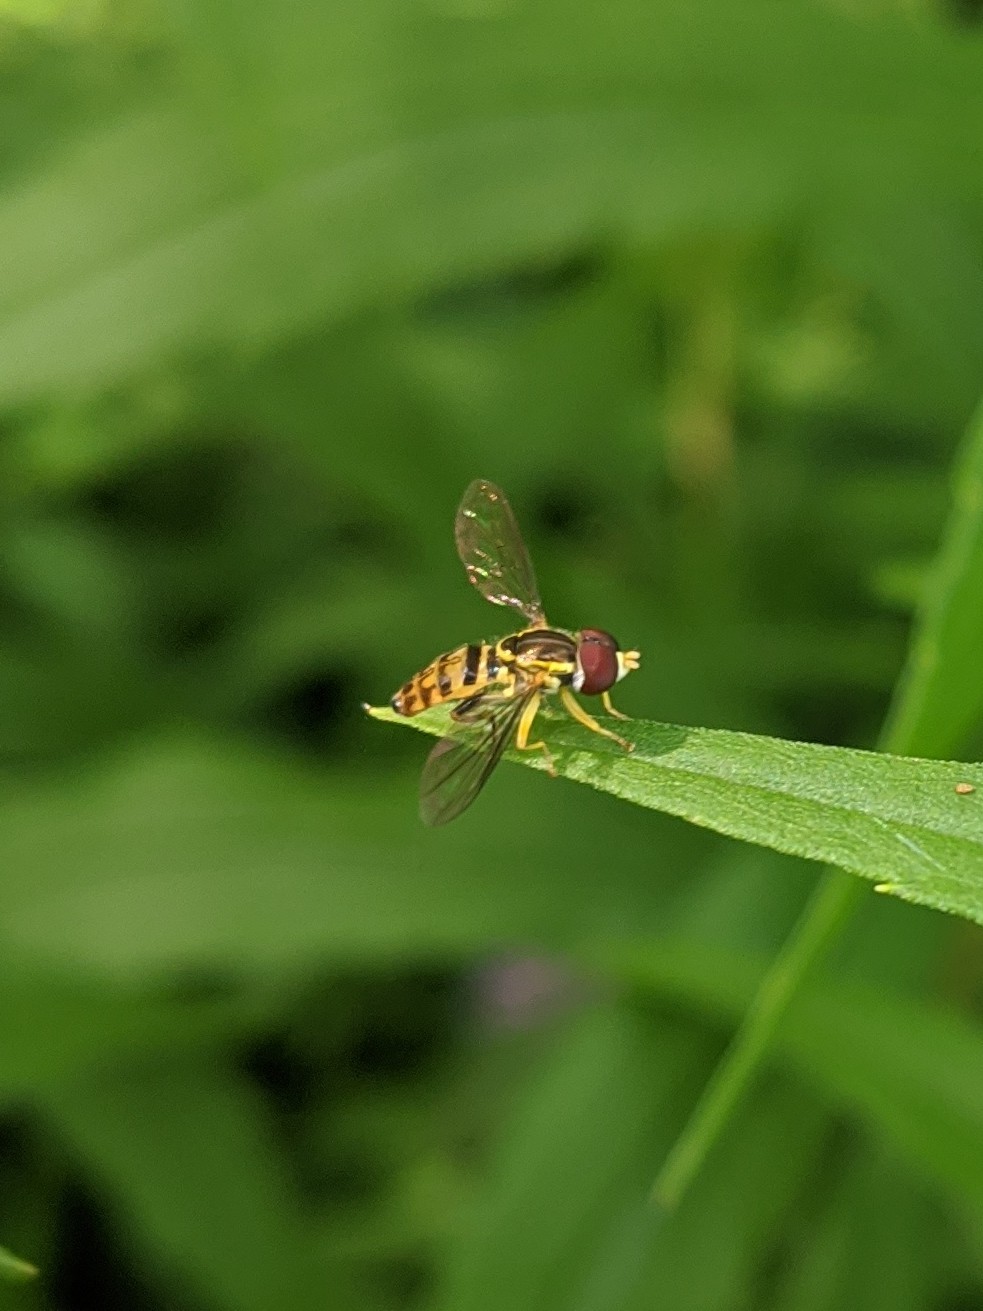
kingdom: Animalia
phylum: Arthropoda
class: Insecta
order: Diptera
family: Syrphidae
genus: Toxomerus
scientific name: Toxomerus geminatus
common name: Eastern calligrapher
